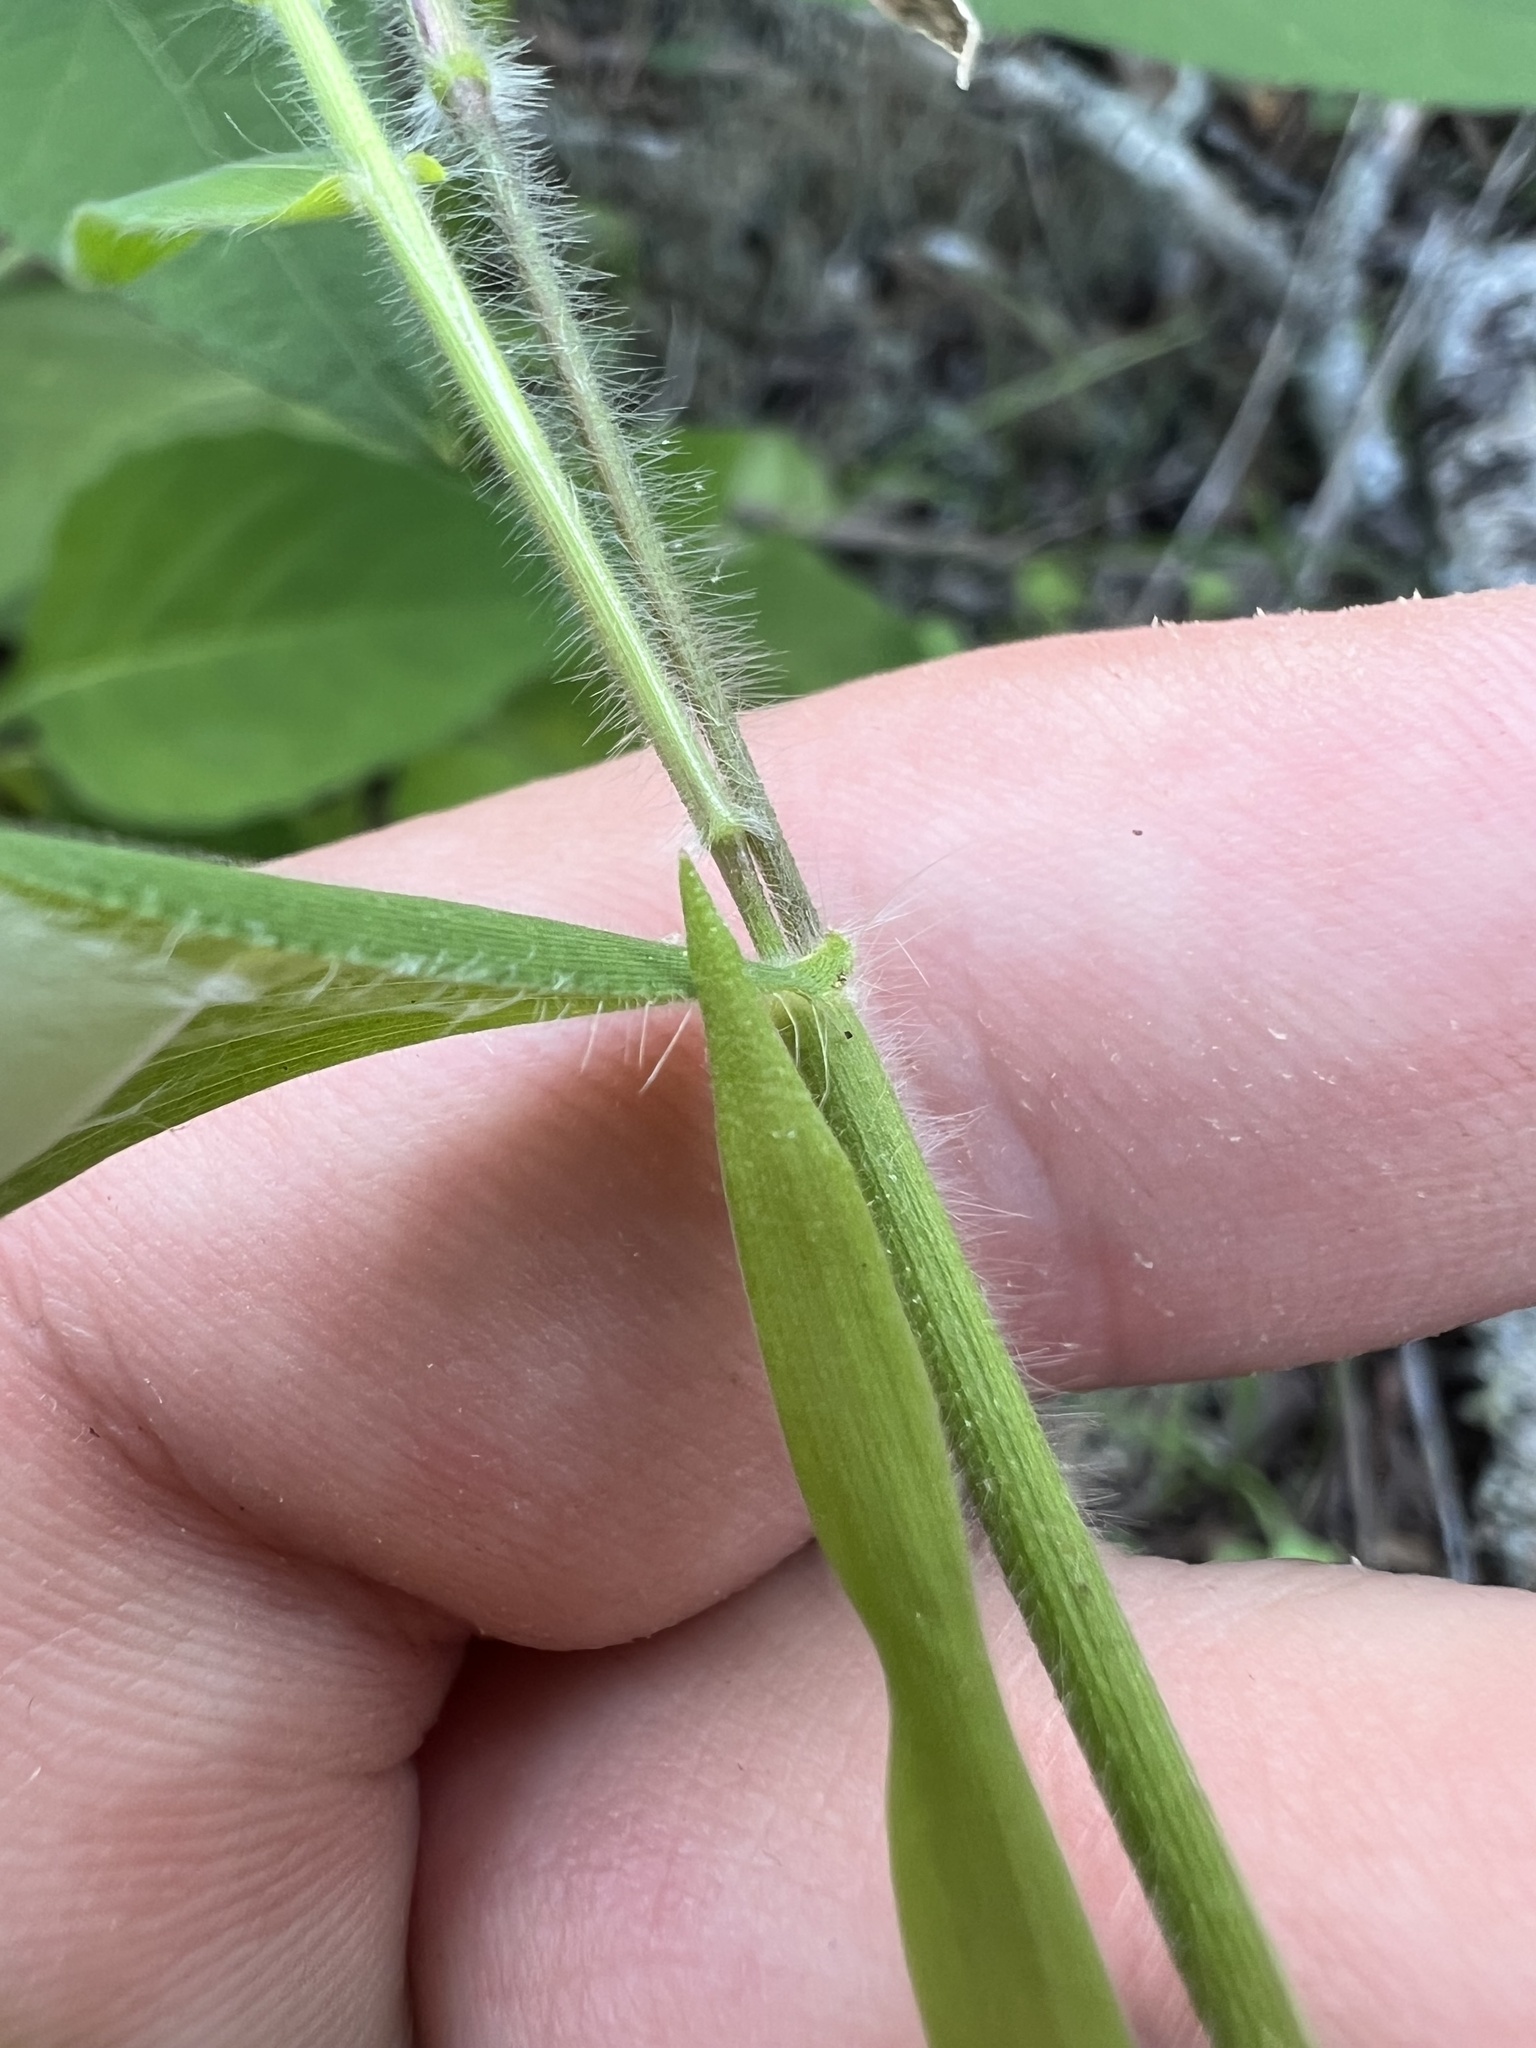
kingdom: Plantae
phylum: Tracheophyta
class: Liliopsida
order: Poales
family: Poaceae
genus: Dichanthelium
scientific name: Dichanthelium malacophyllum
